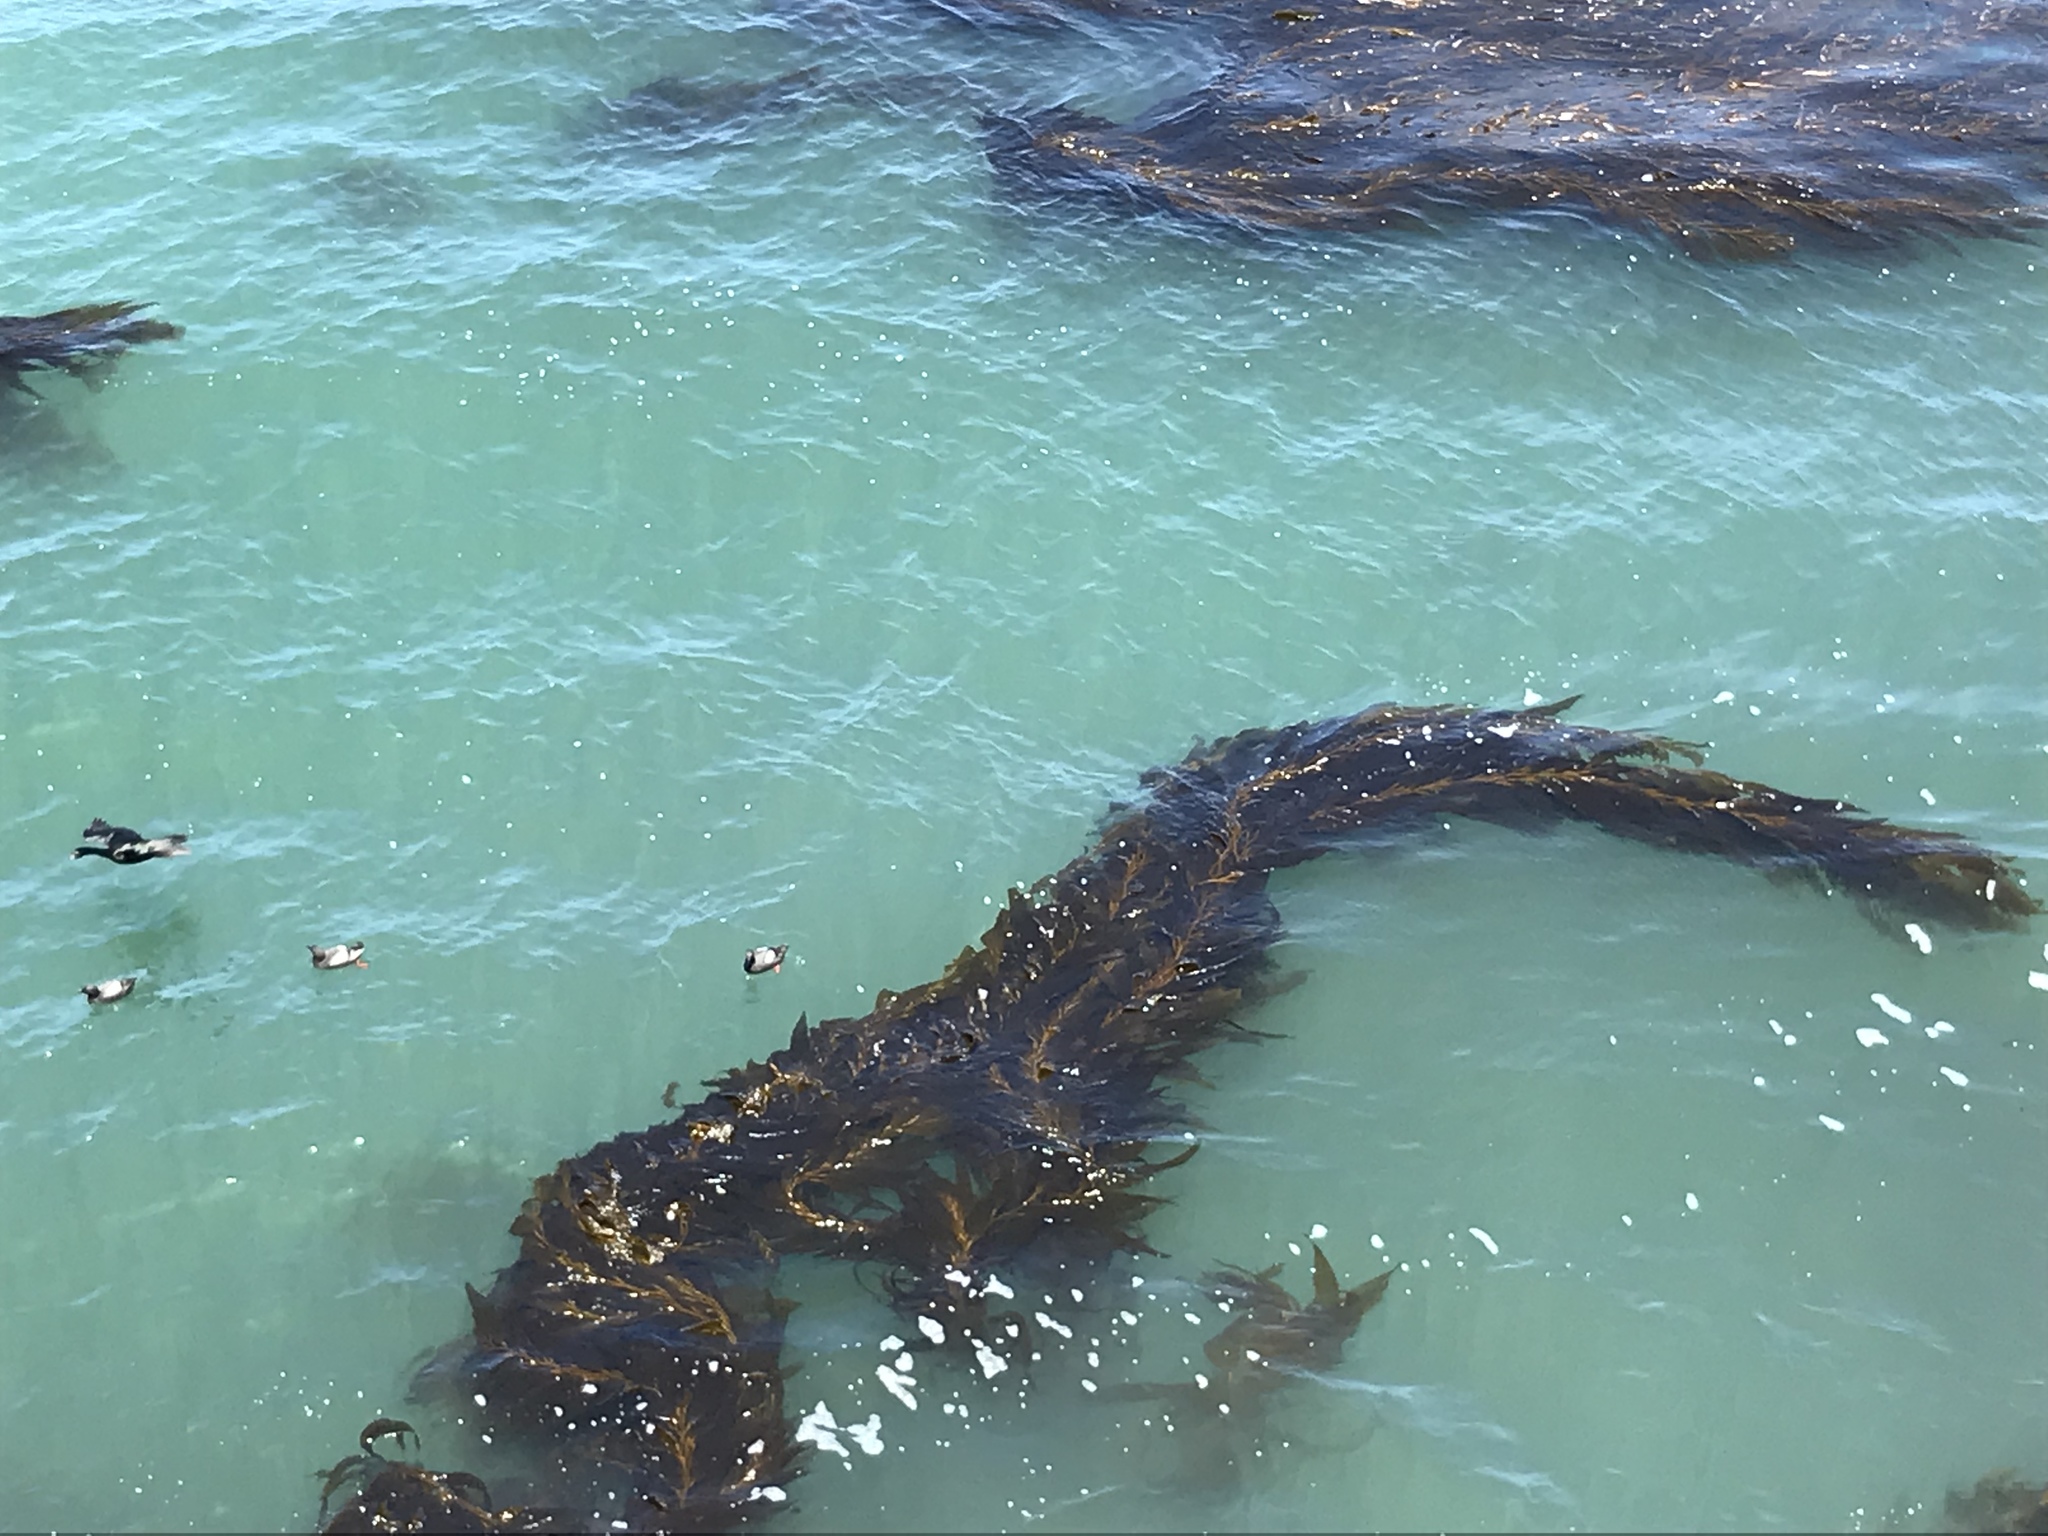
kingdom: Chromista
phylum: Ochrophyta
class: Phaeophyceae
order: Laminariales
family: Laminariaceae
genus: Macrocystis
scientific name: Macrocystis pyrifera
